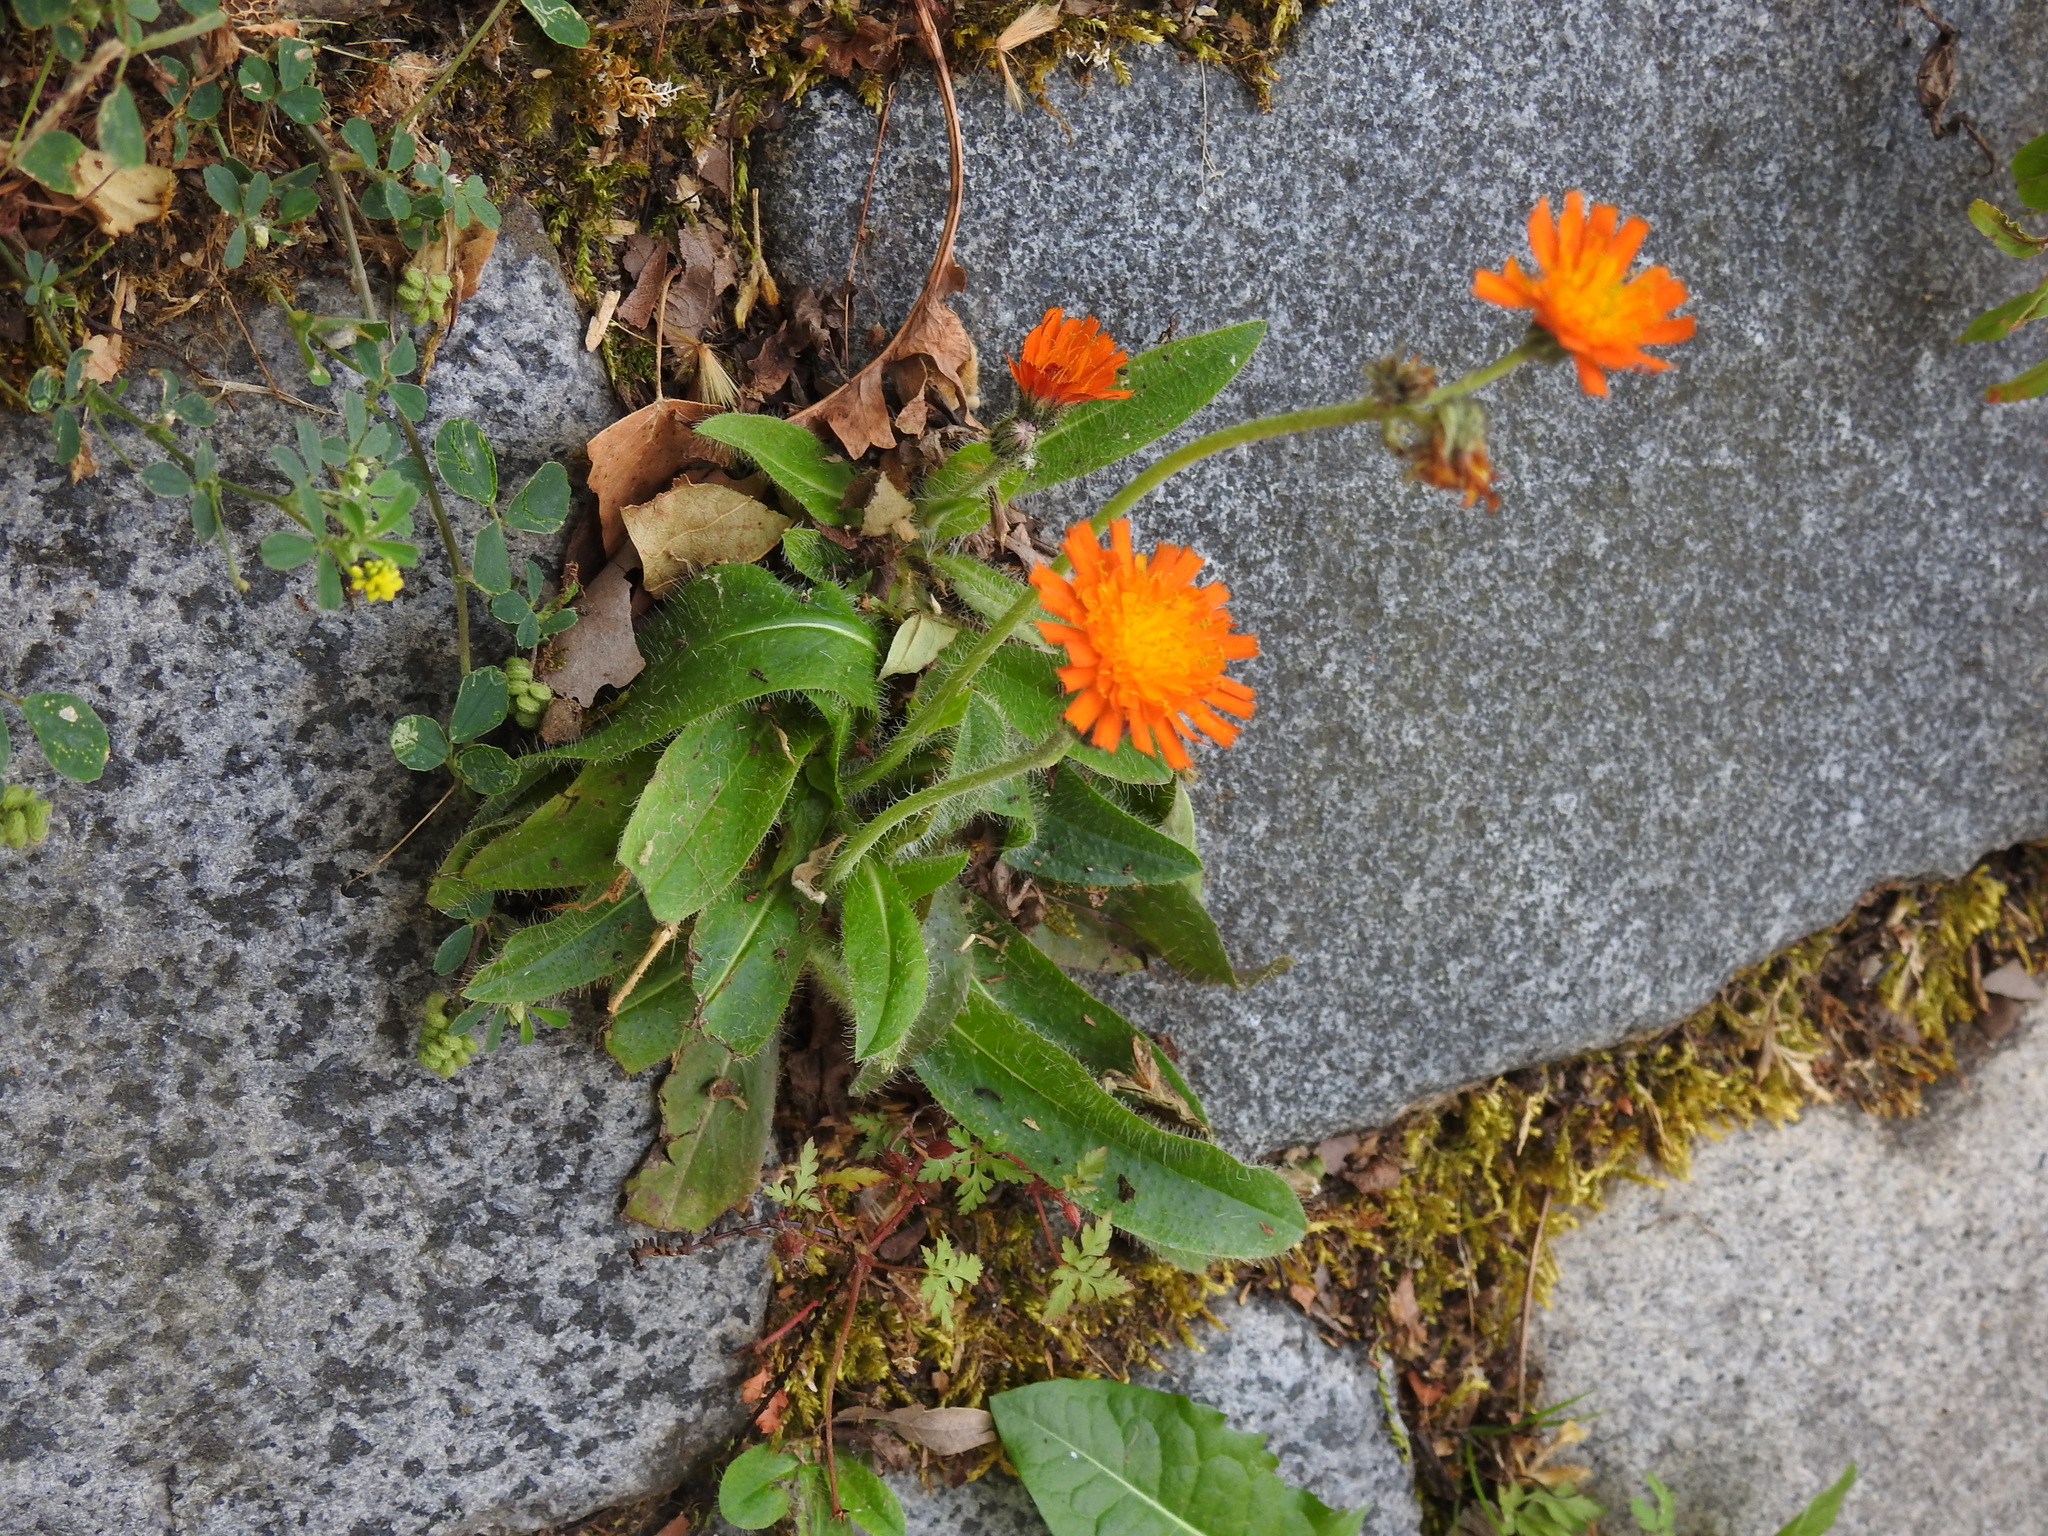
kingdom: Plantae
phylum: Tracheophyta
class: Magnoliopsida
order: Asterales
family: Asteraceae
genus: Pilosella
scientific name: Pilosella aurantiaca
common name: Fox-and-cubs
